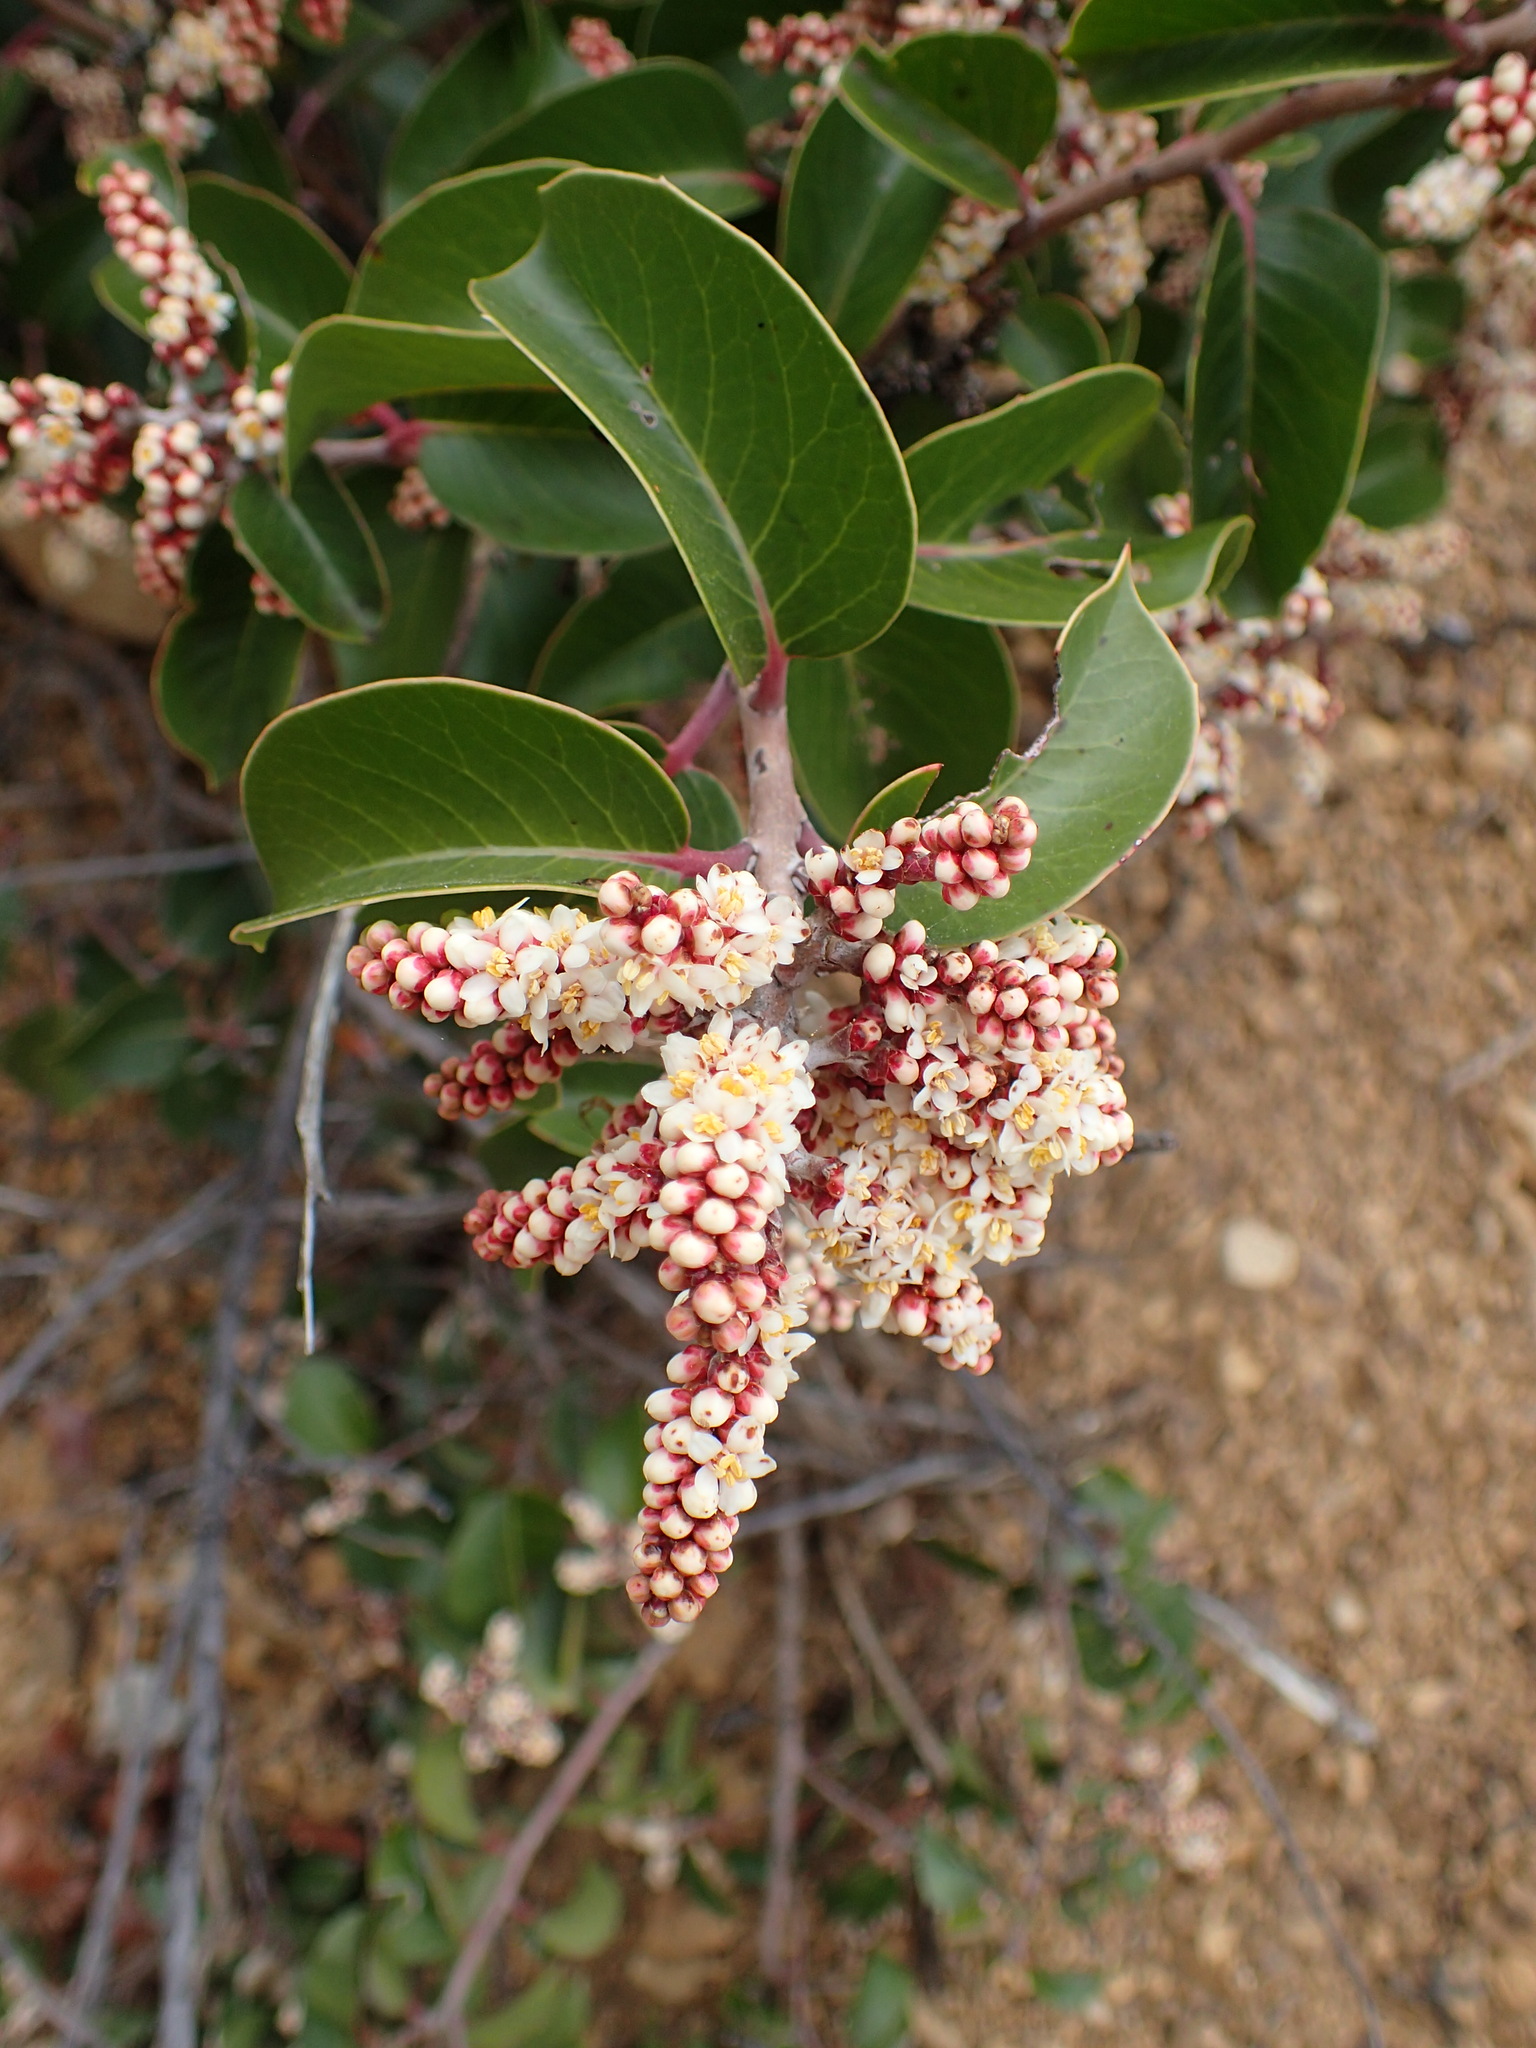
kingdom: Plantae
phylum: Tracheophyta
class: Magnoliopsida
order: Sapindales
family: Anacardiaceae
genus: Rhus
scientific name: Rhus ovata
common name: Sugar sumac
